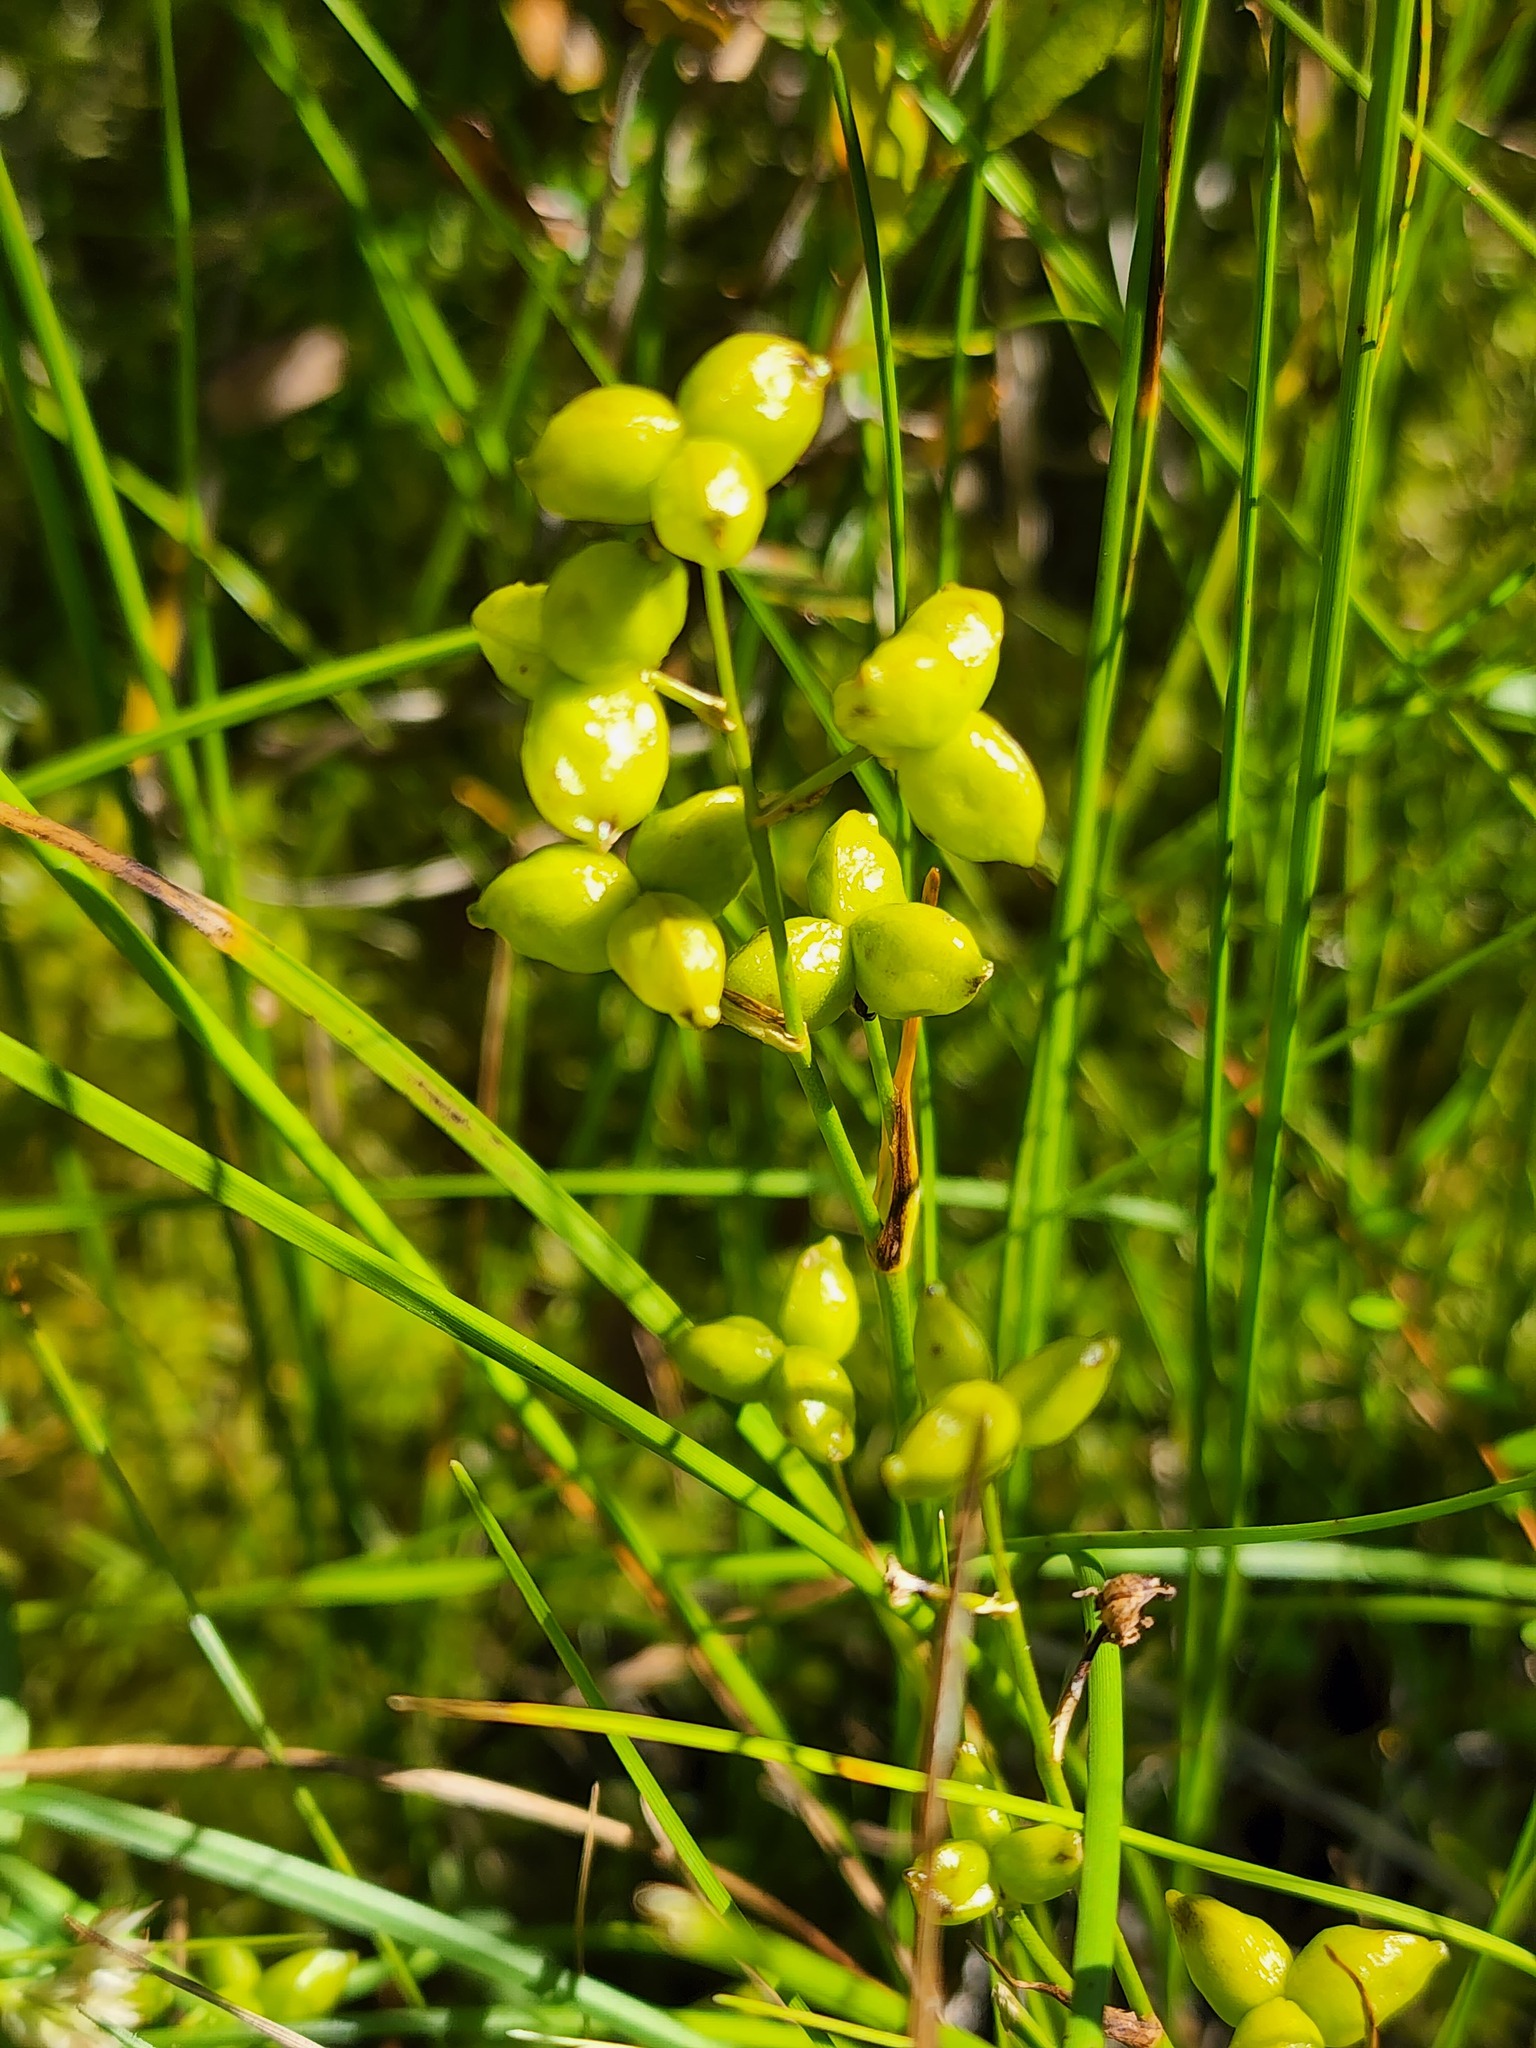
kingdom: Plantae
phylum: Tracheophyta
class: Liliopsida
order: Alismatales
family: Scheuchzeriaceae
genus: Scheuchzeria
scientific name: Scheuchzeria palustris
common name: Rannoch-rush
